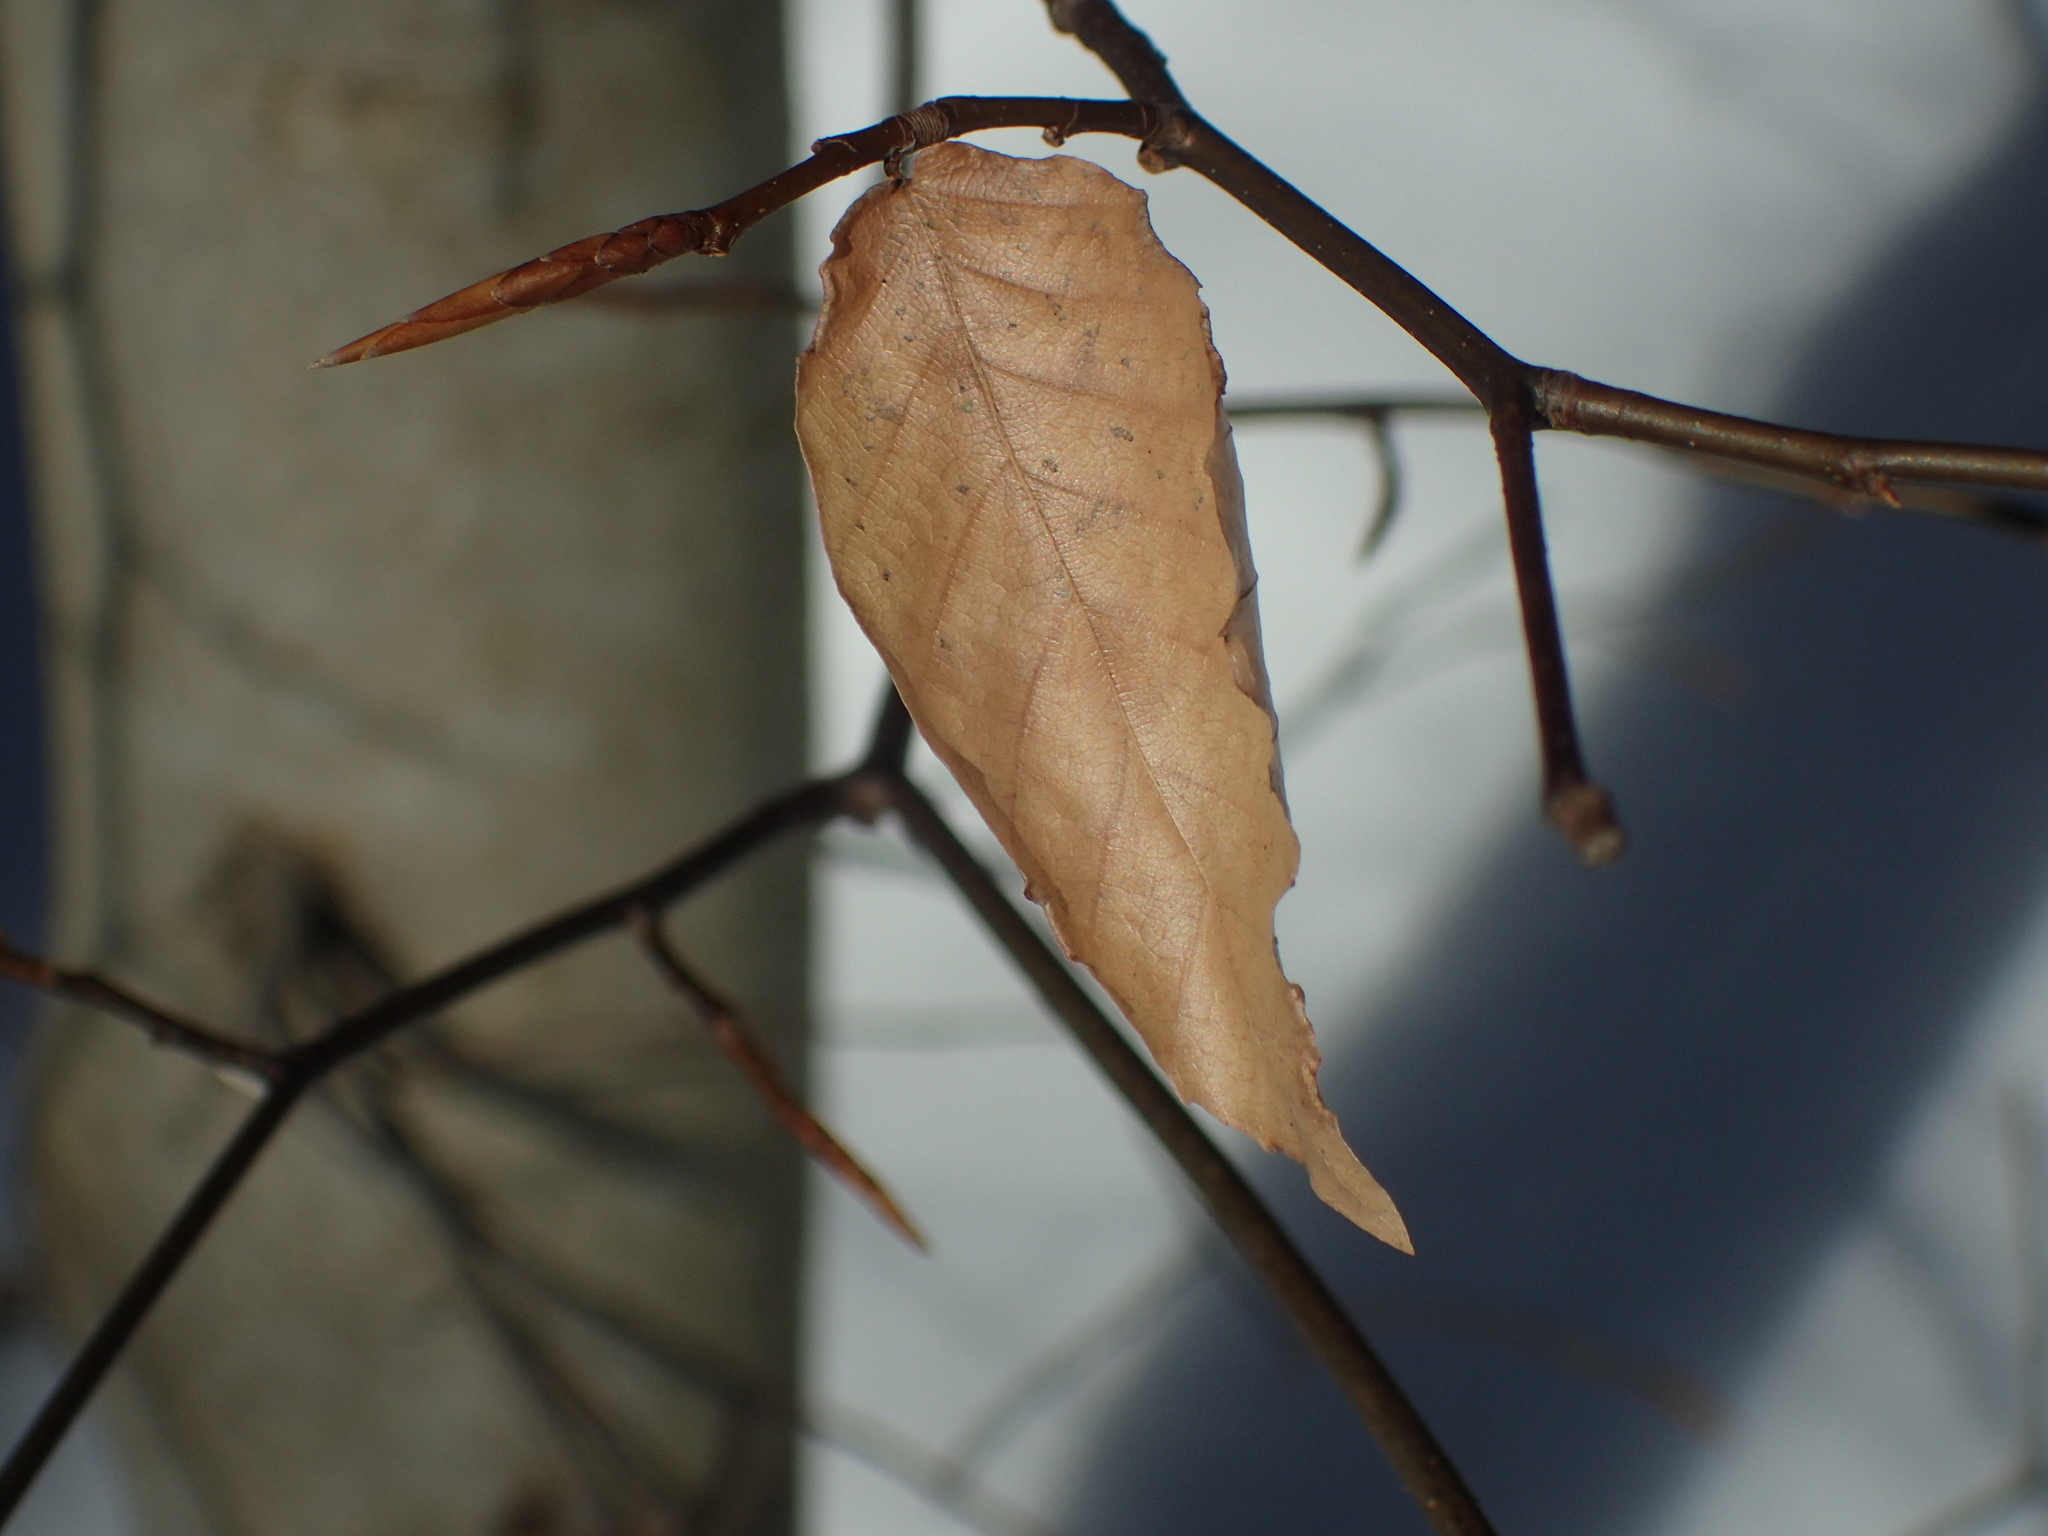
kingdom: Plantae
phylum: Tracheophyta
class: Magnoliopsida
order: Fagales
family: Fagaceae
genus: Fagus
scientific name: Fagus grandifolia
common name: American beech
